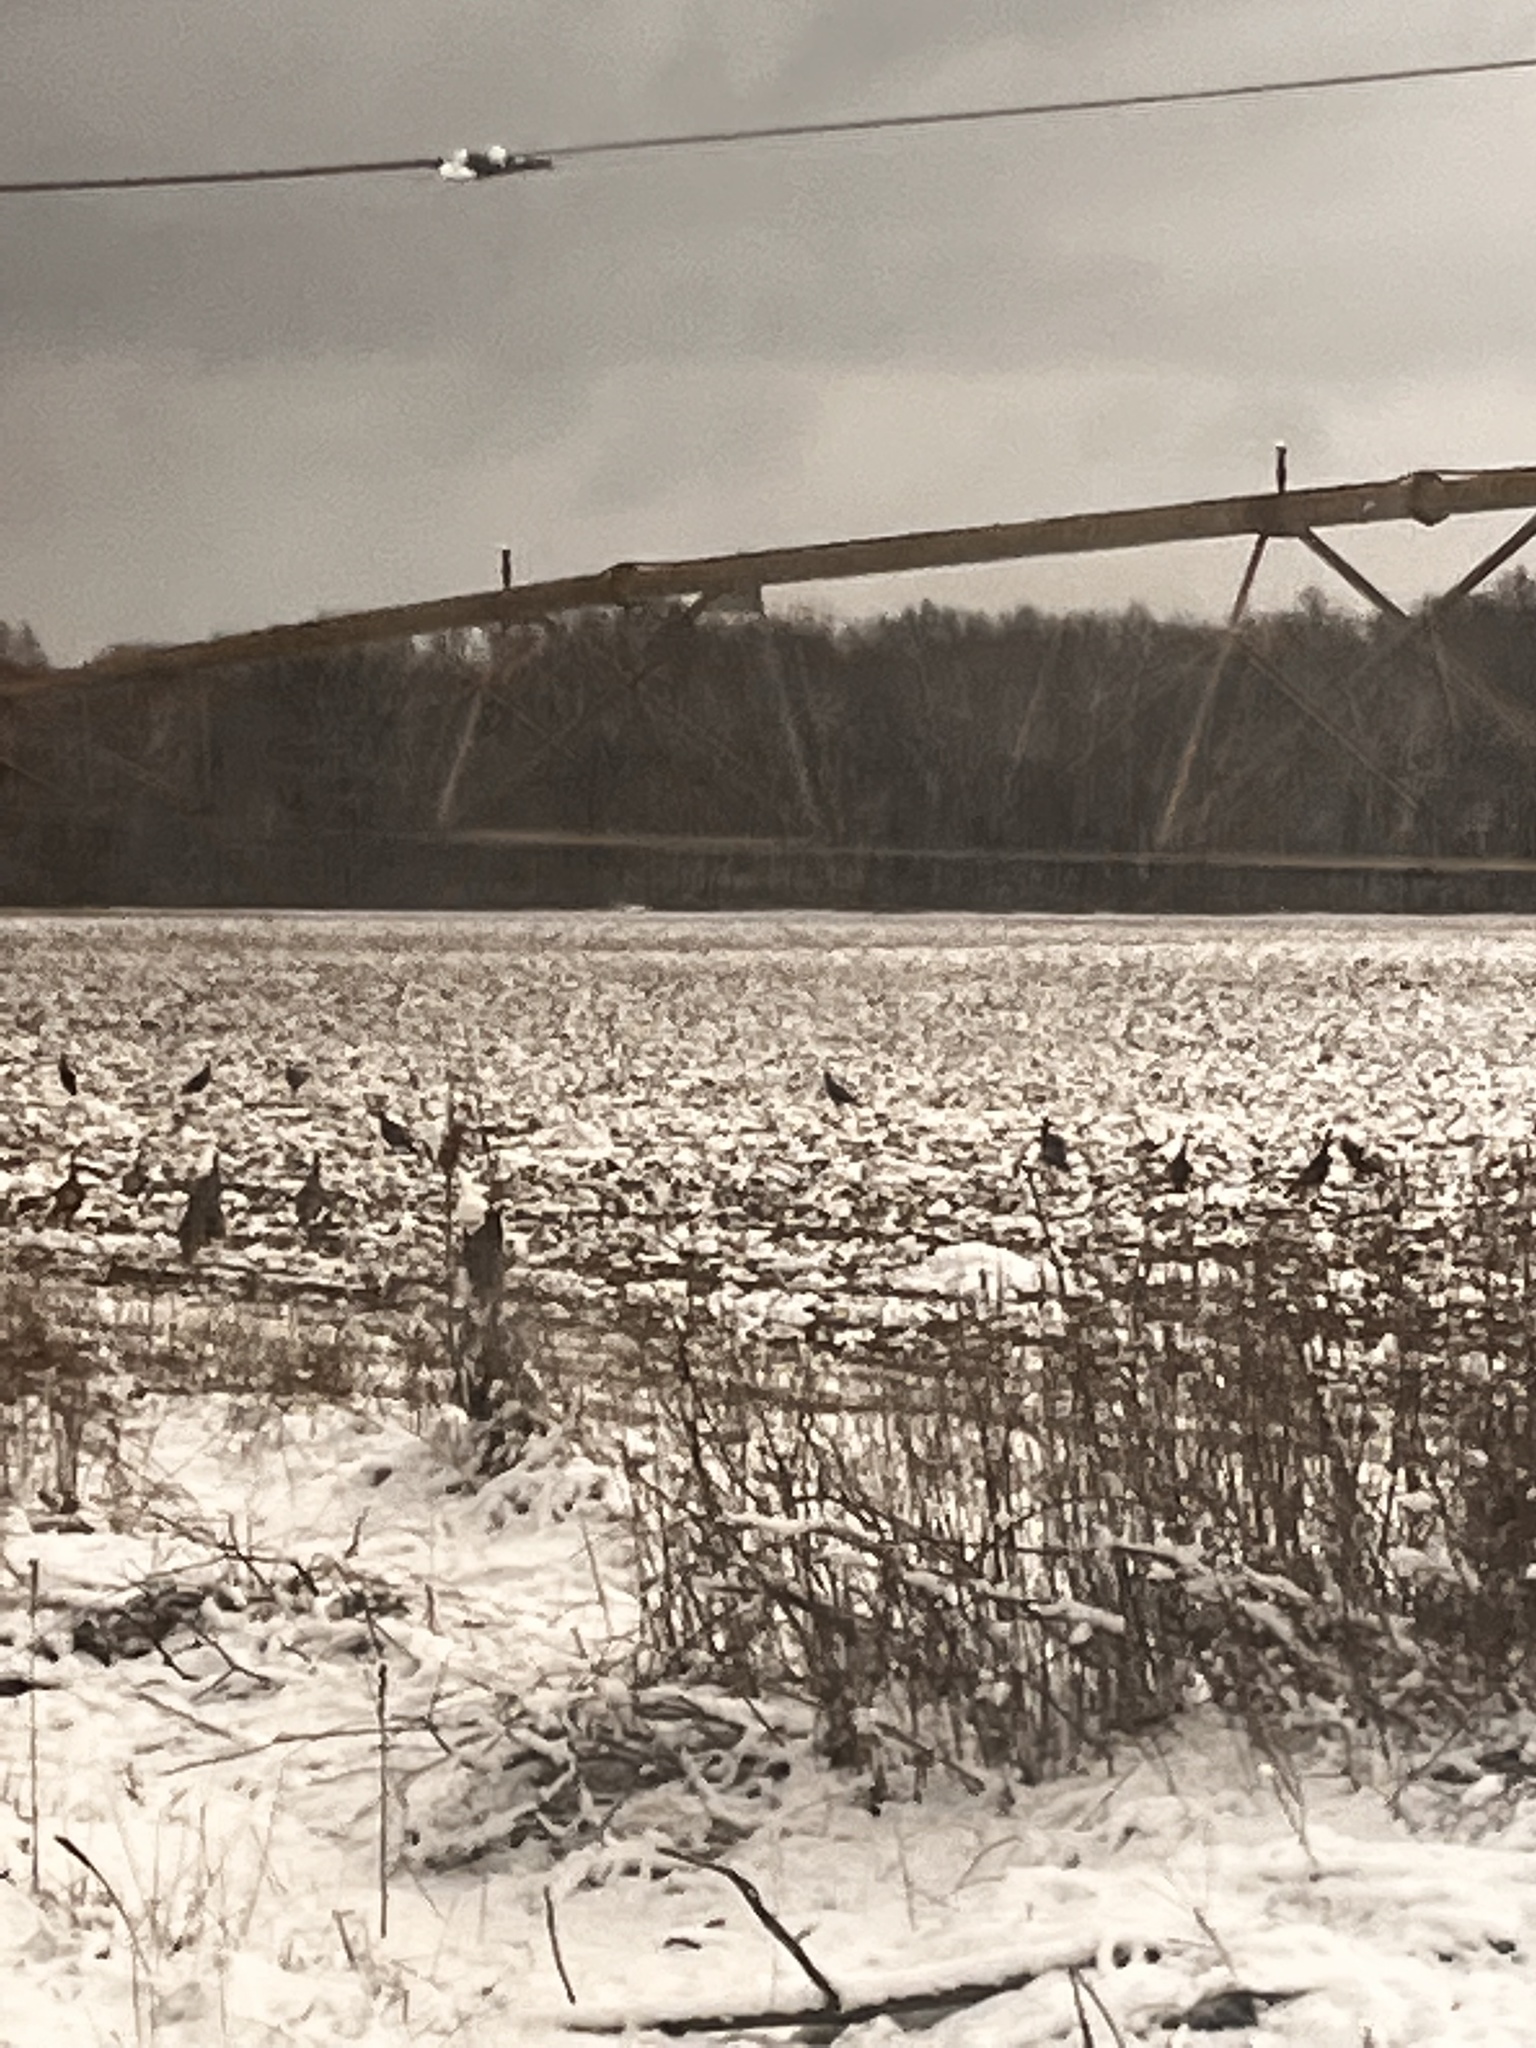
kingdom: Animalia
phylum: Chordata
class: Aves
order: Galliformes
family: Phasianidae
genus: Meleagris
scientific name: Meleagris gallopavo
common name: Wild turkey
